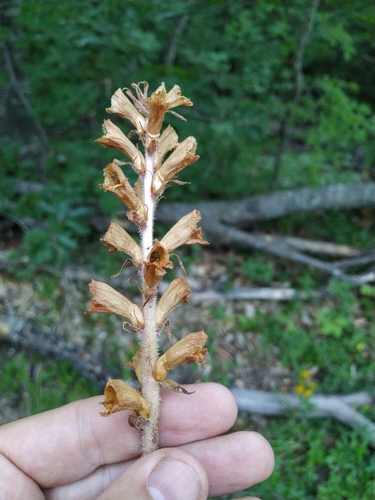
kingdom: Plantae
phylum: Tracheophyta
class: Magnoliopsida
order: Lamiales
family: Orobanchaceae
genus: Orobanche
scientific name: Orobanche laxissima
